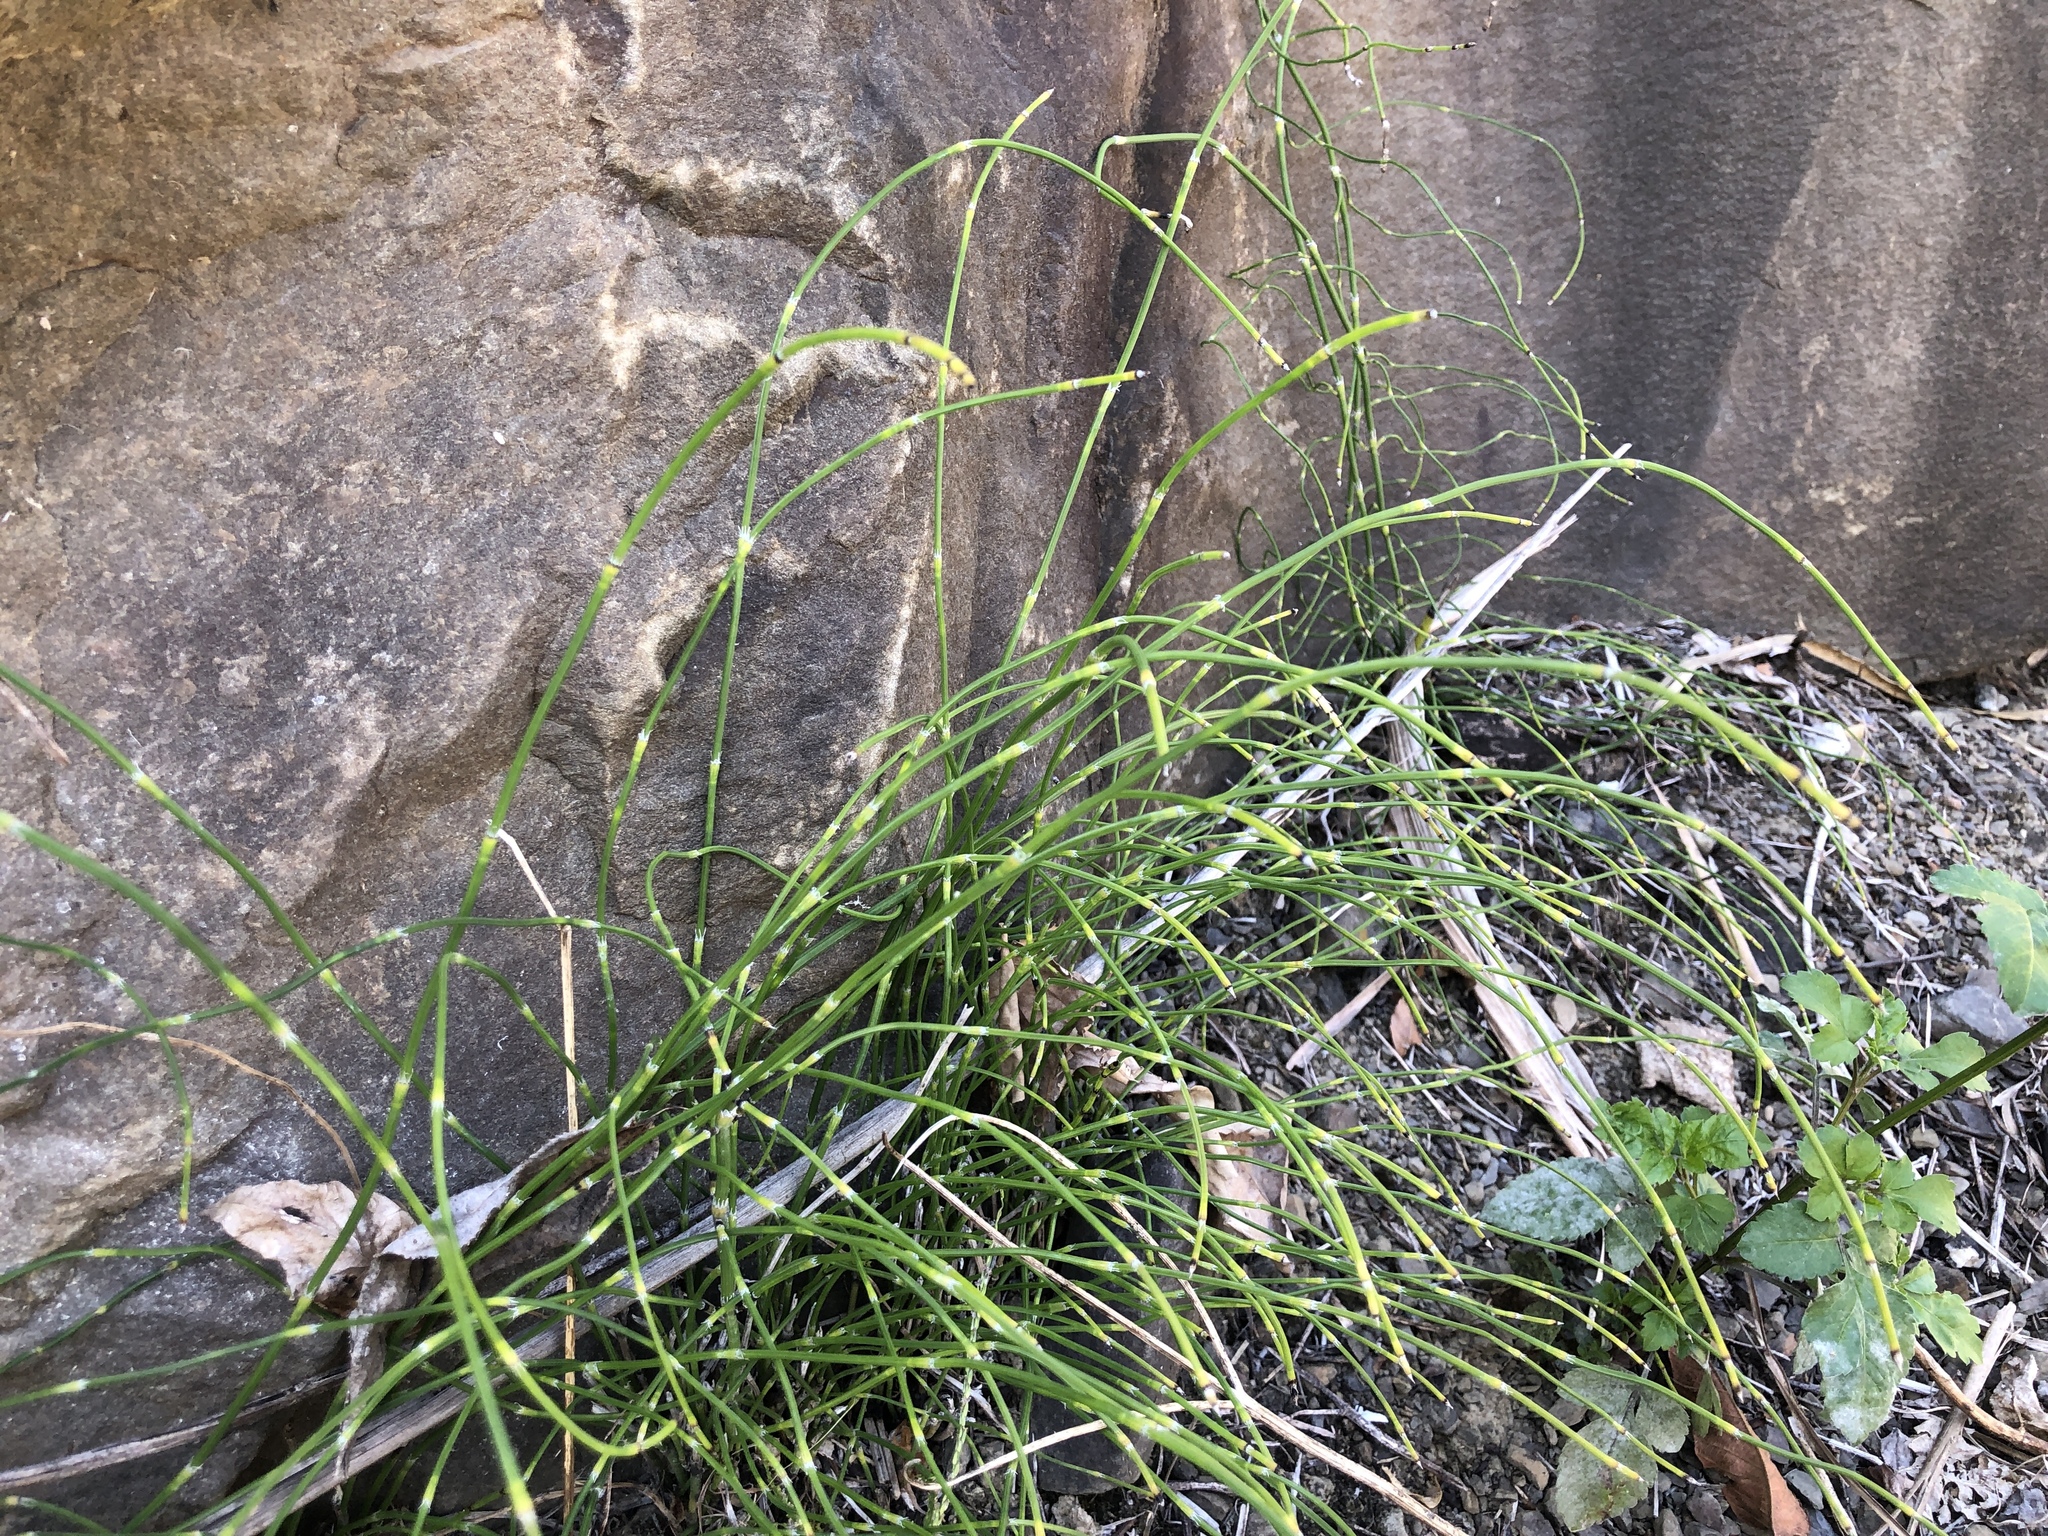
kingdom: Plantae
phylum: Tracheophyta
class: Polypodiopsida
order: Equisetales
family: Equisetaceae
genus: Equisetum
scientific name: Equisetum ramosissimum
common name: Branched horsetail
